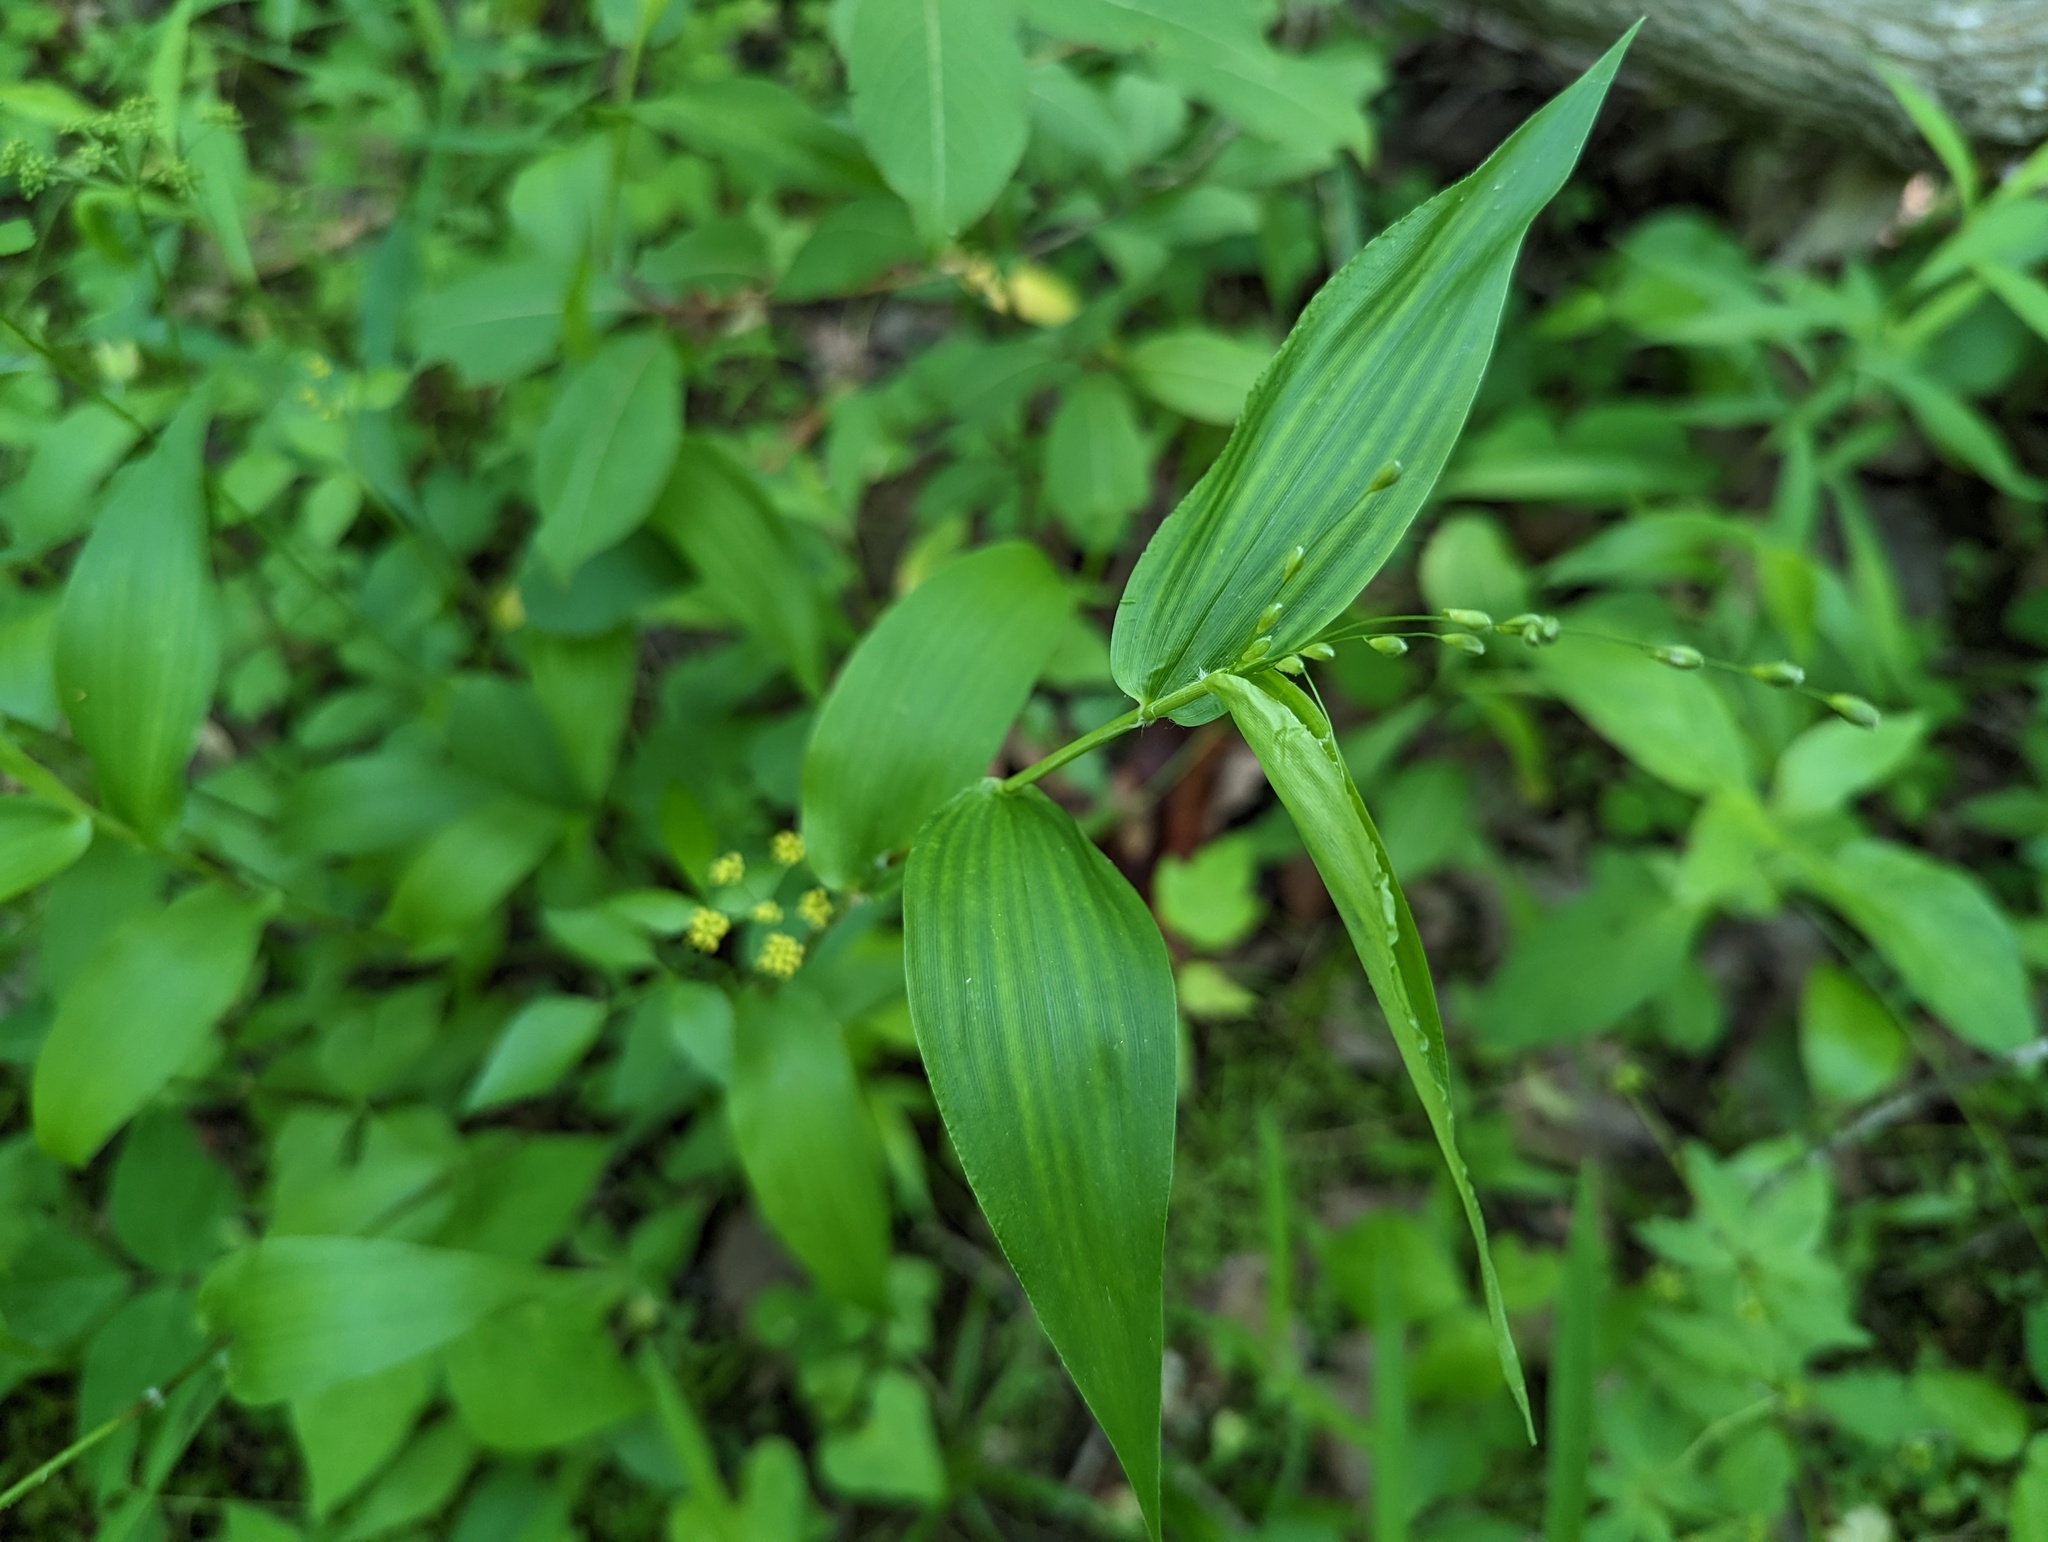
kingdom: Plantae
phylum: Tracheophyta
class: Liliopsida
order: Poales
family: Poaceae
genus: Dichanthelium
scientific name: Dichanthelium boscii
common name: Bosc's panic grass
